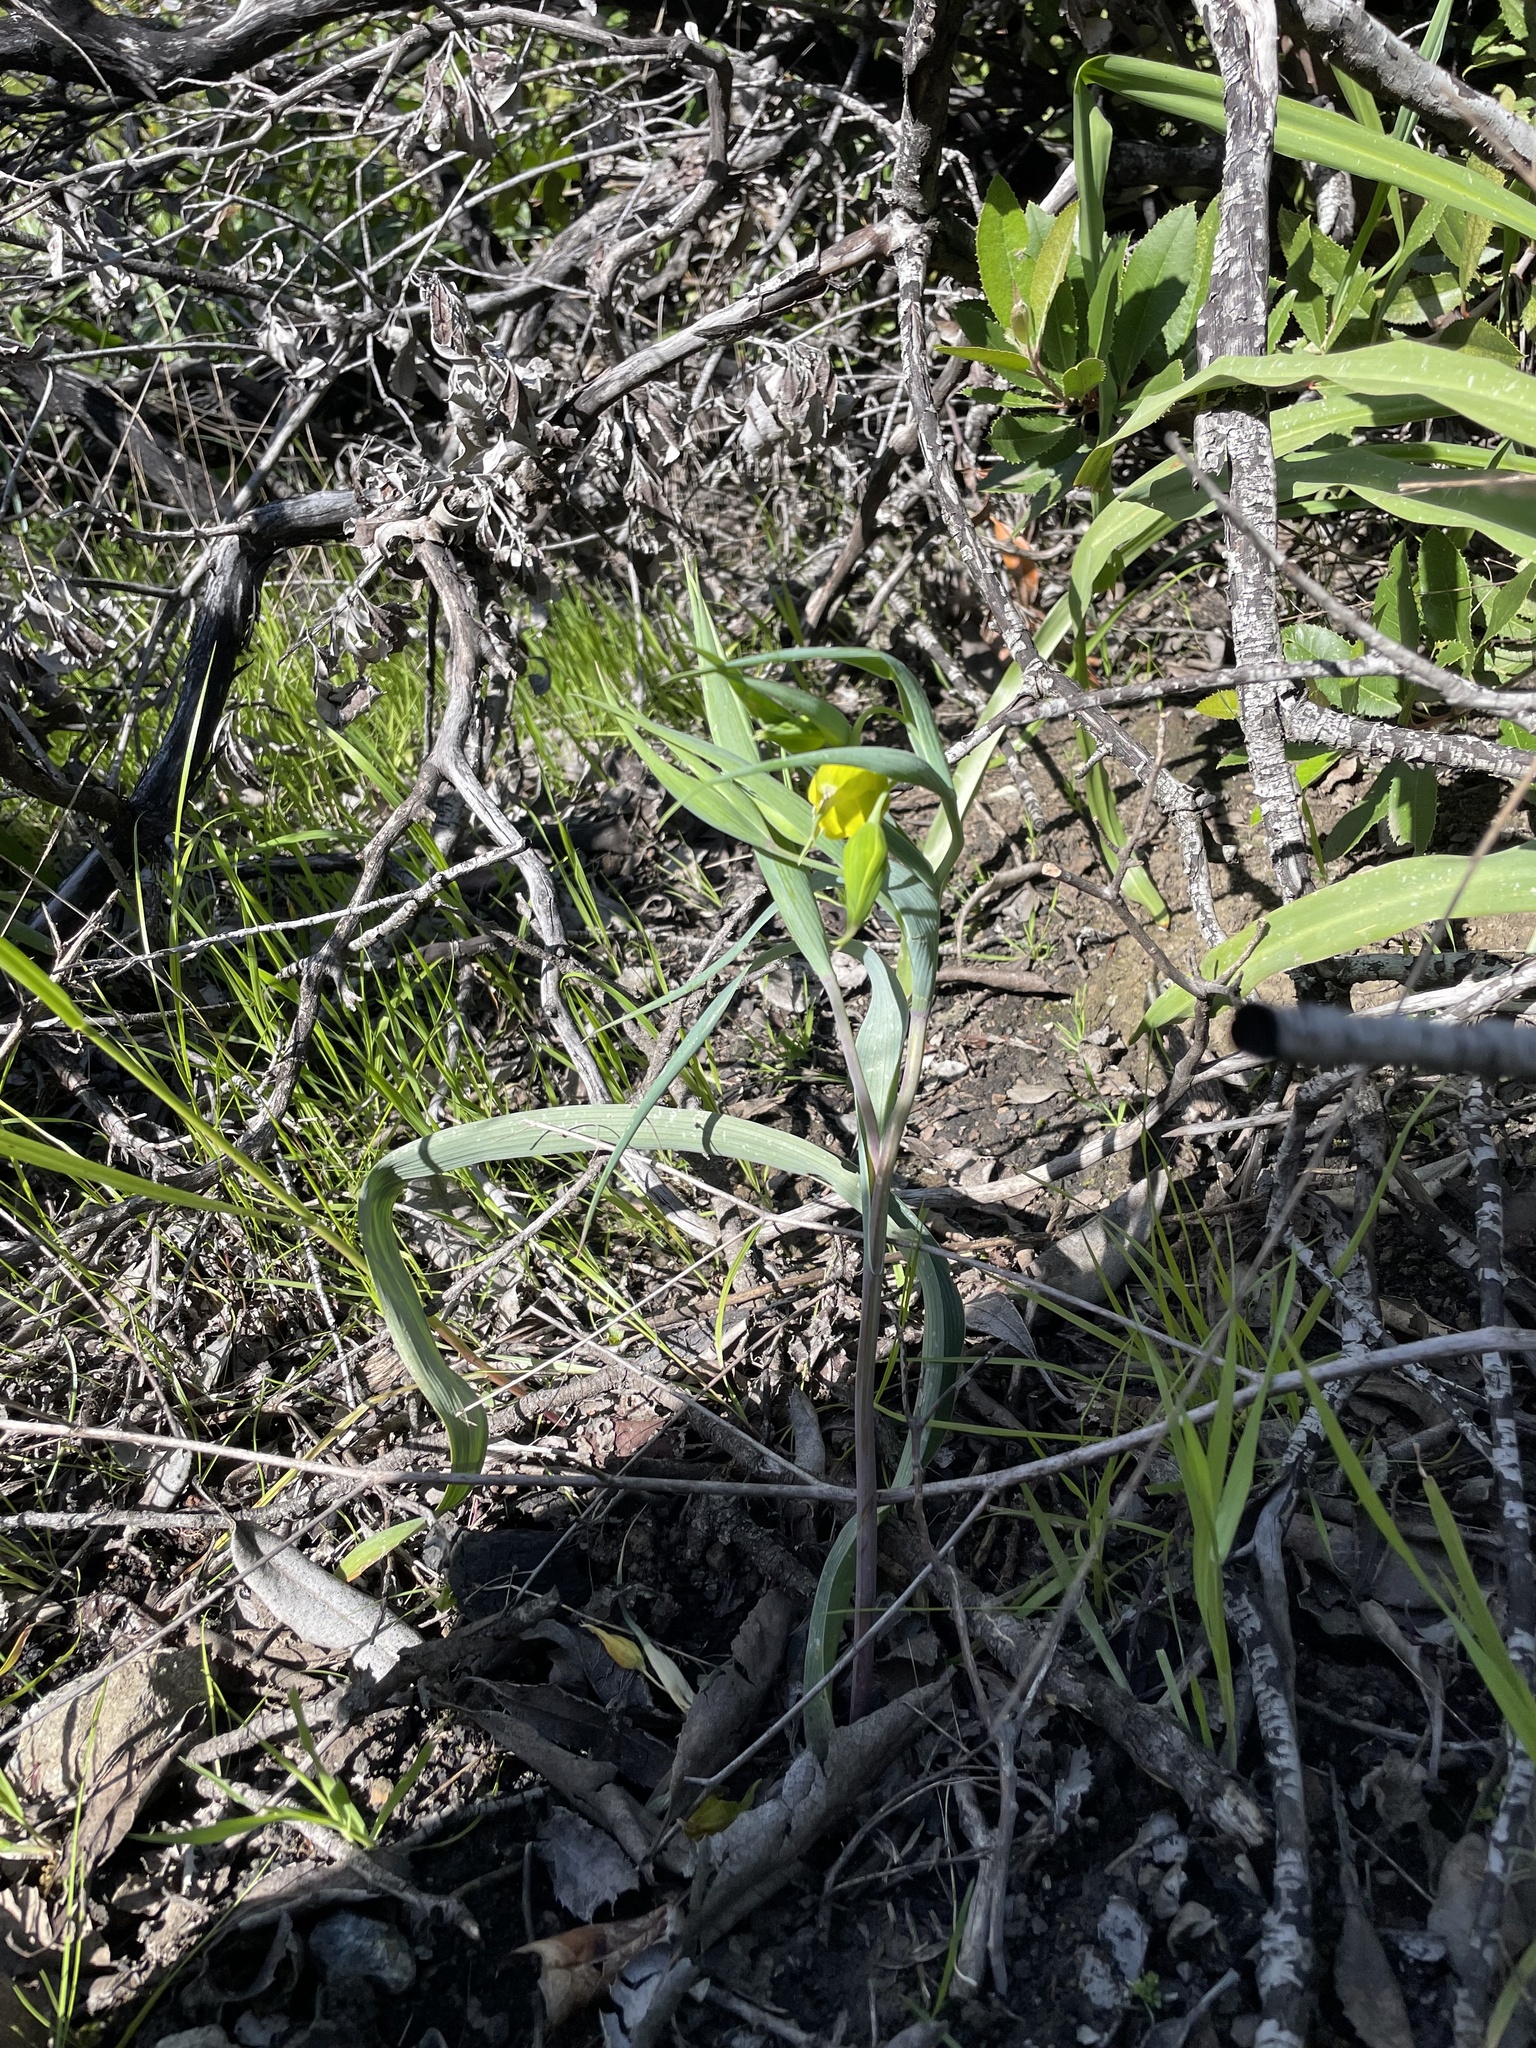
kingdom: Plantae
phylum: Tracheophyta
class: Liliopsida
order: Liliales
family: Liliaceae
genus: Calochortus
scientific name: Calochortus amabilis
